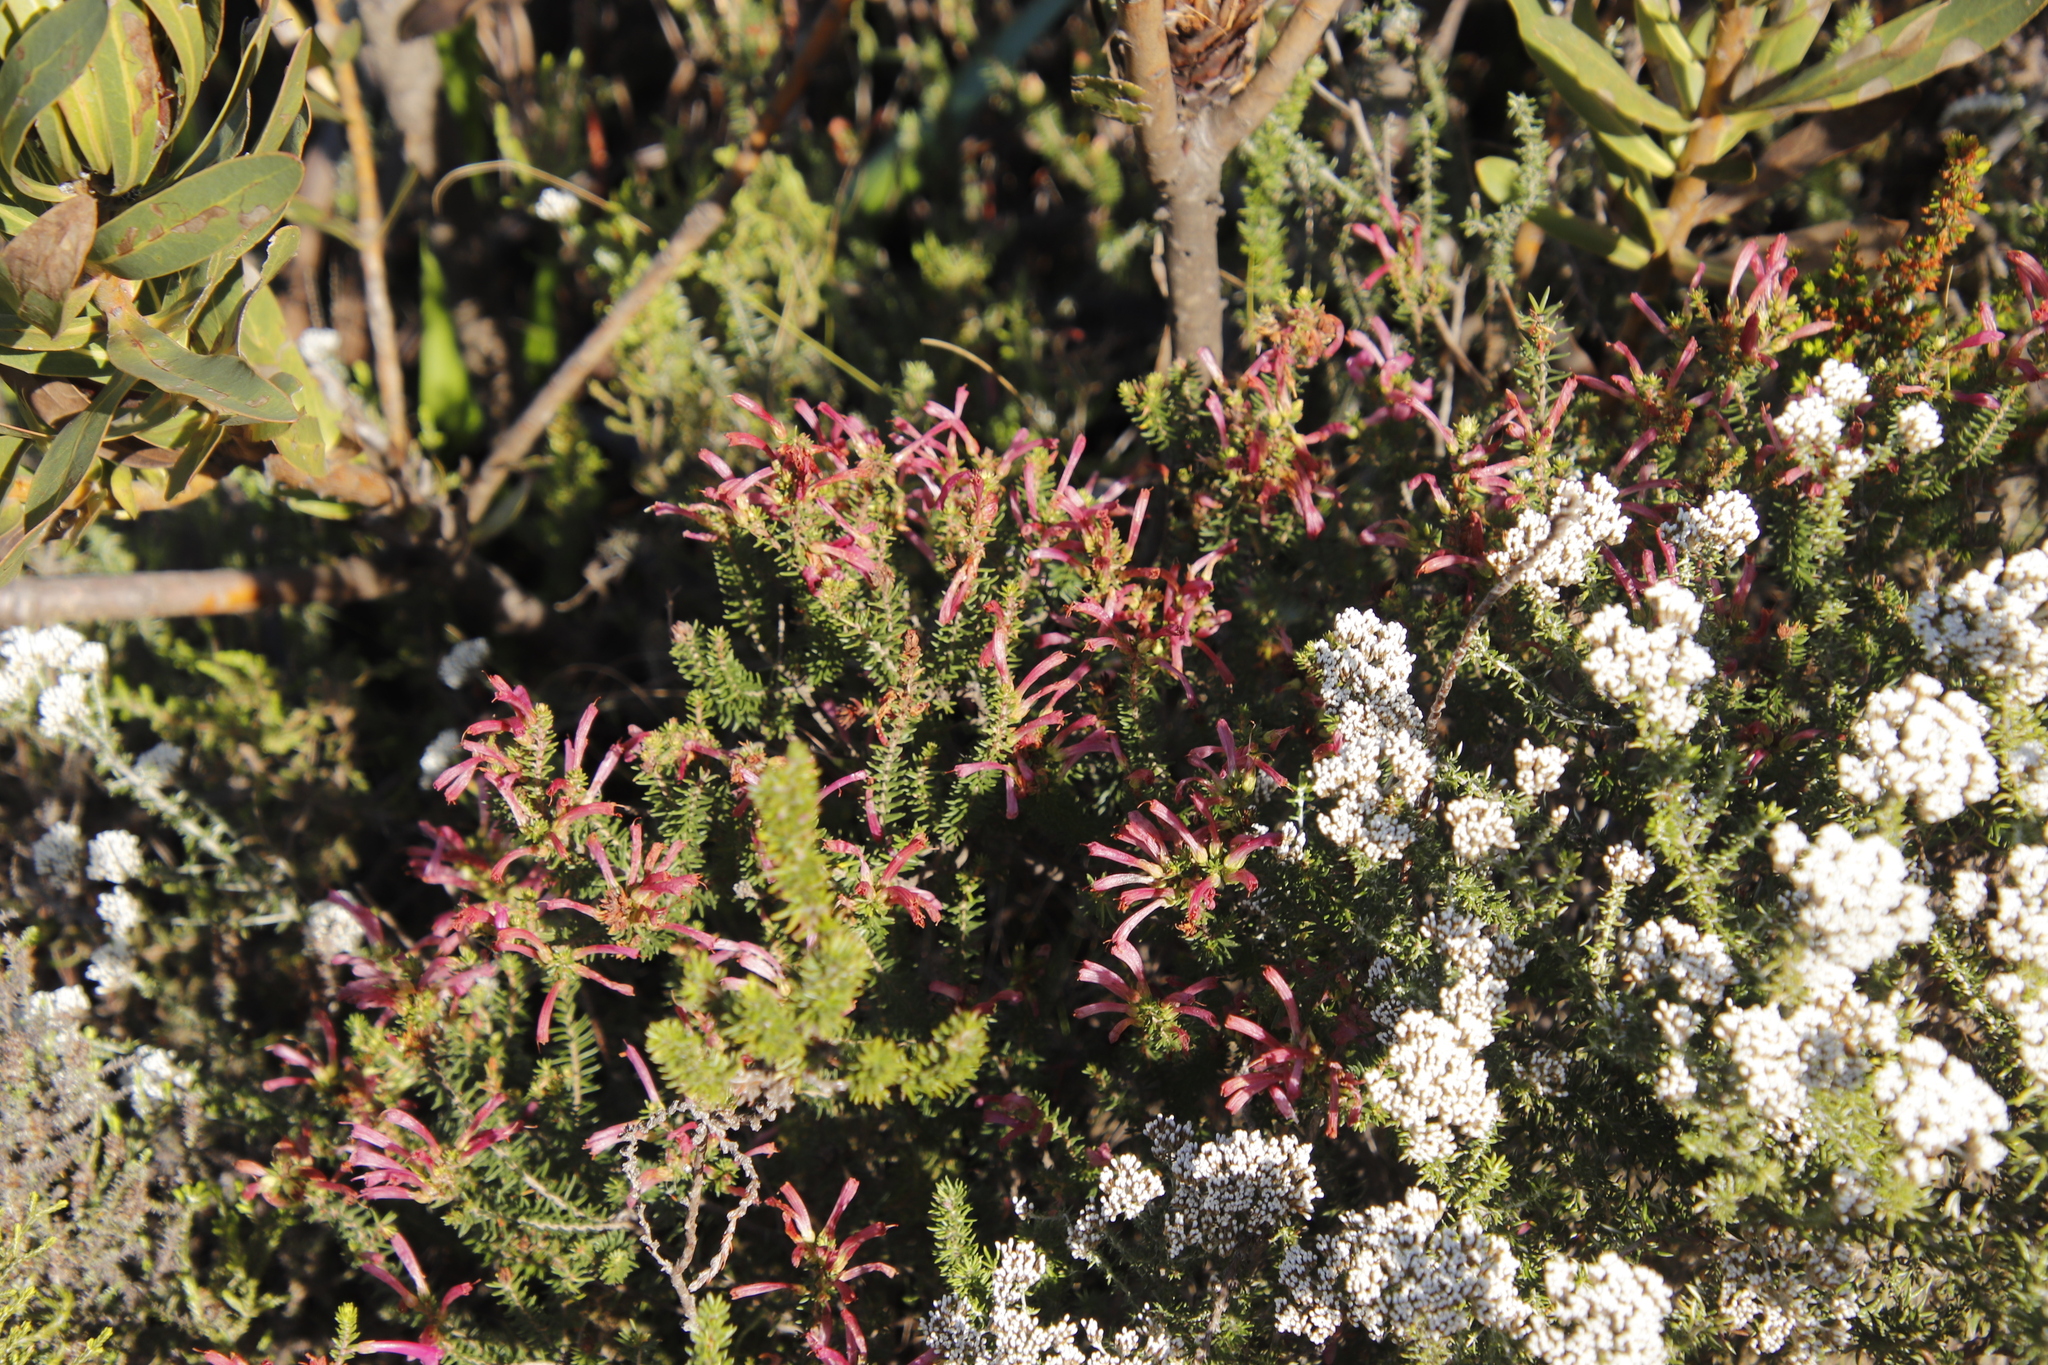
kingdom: Plantae
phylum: Tracheophyta
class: Magnoliopsida
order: Ericales
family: Ericaceae
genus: Erica
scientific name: Erica abietina
